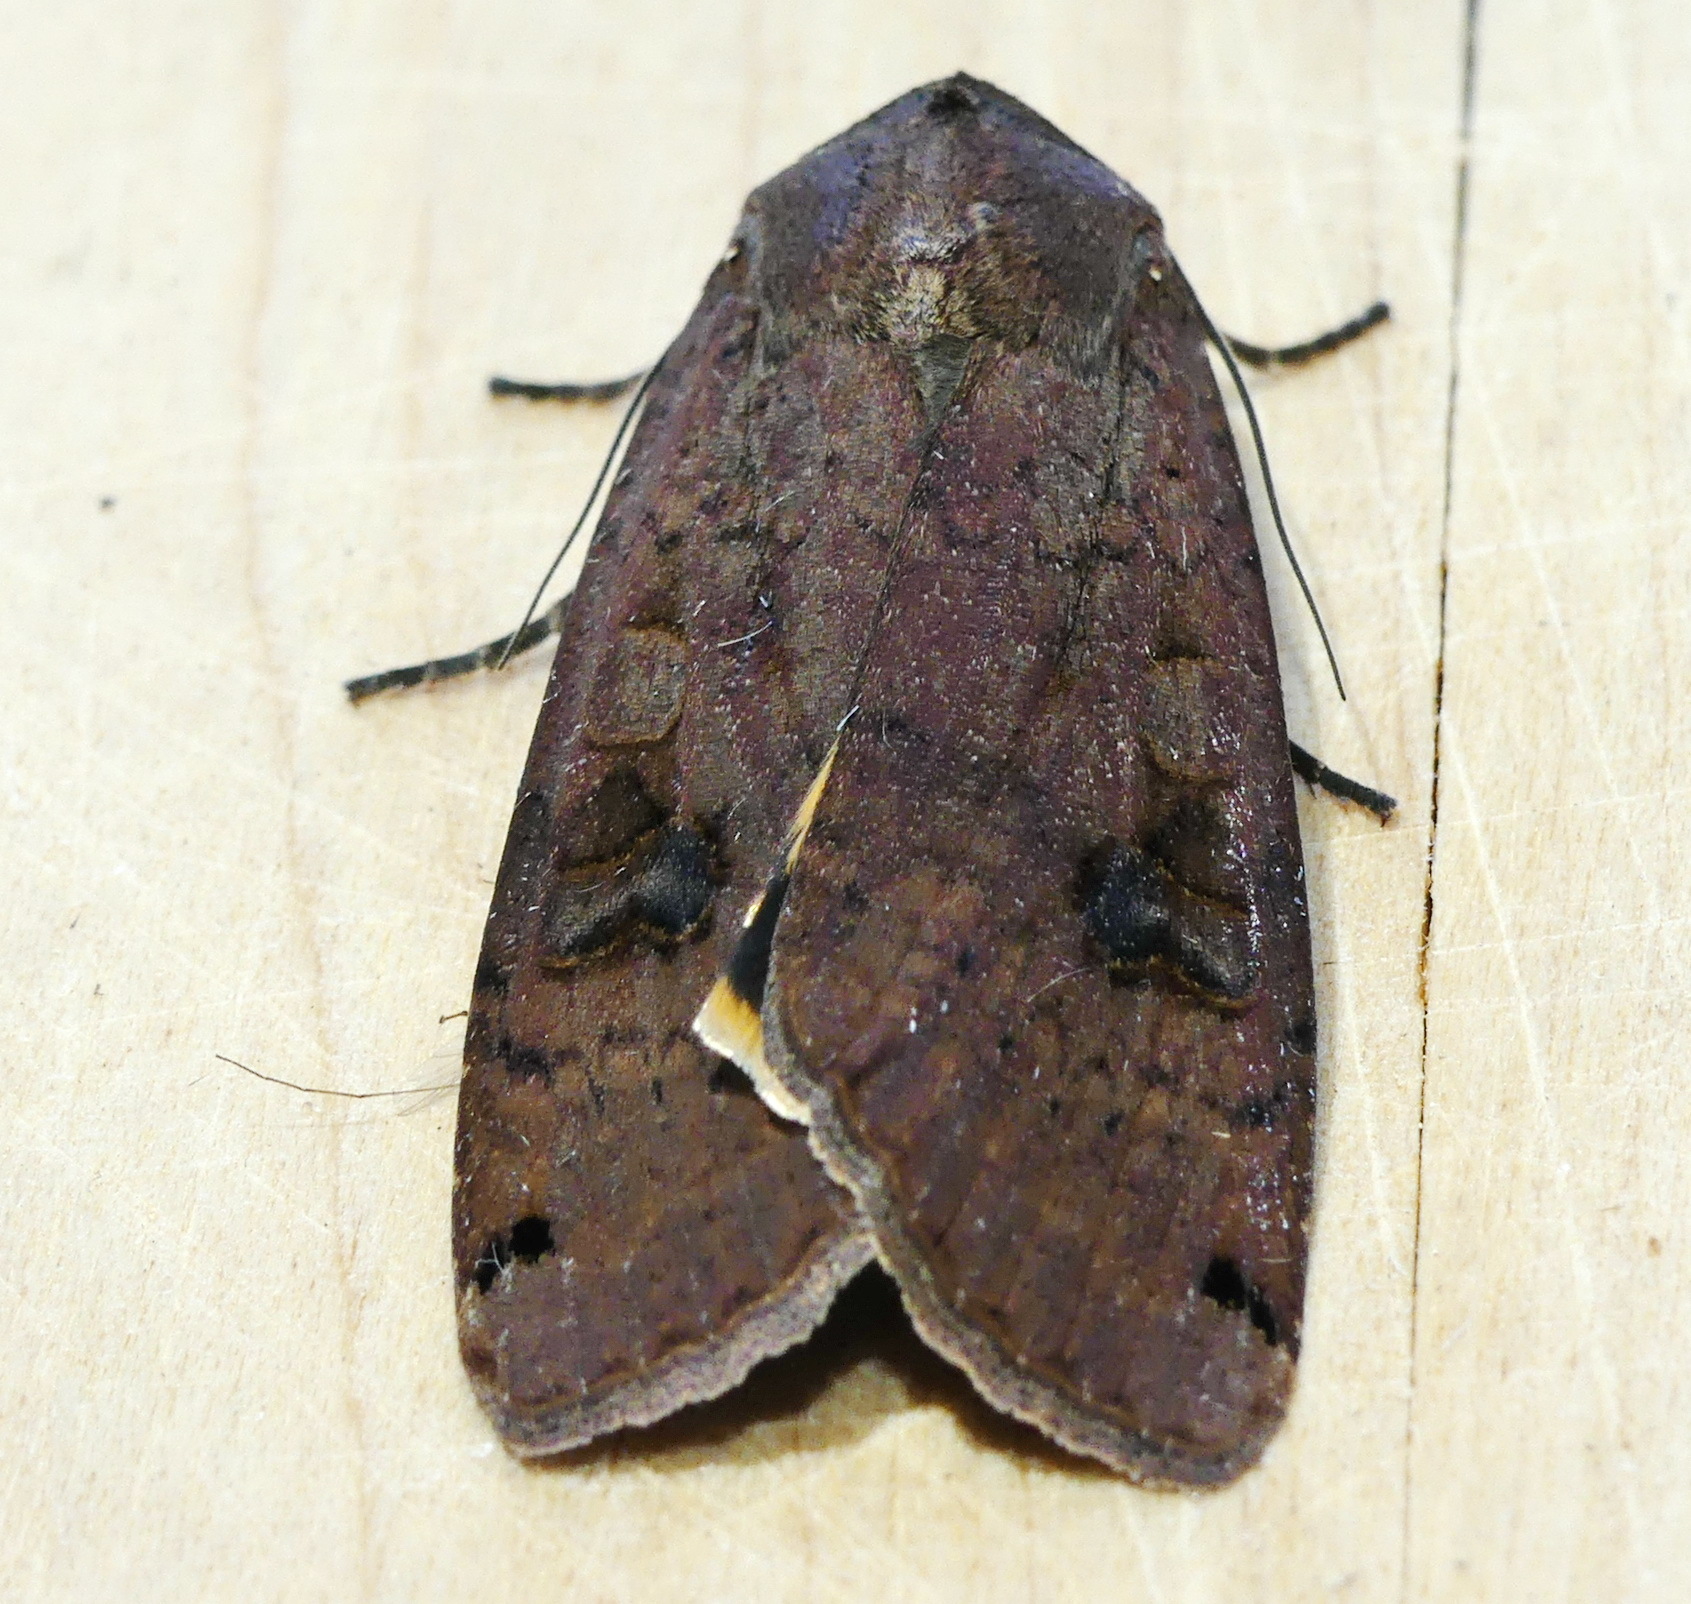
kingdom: Animalia
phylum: Arthropoda
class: Insecta
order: Lepidoptera
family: Noctuidae
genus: Noctua
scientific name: Noctua pronuba
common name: Large yellow underwing
